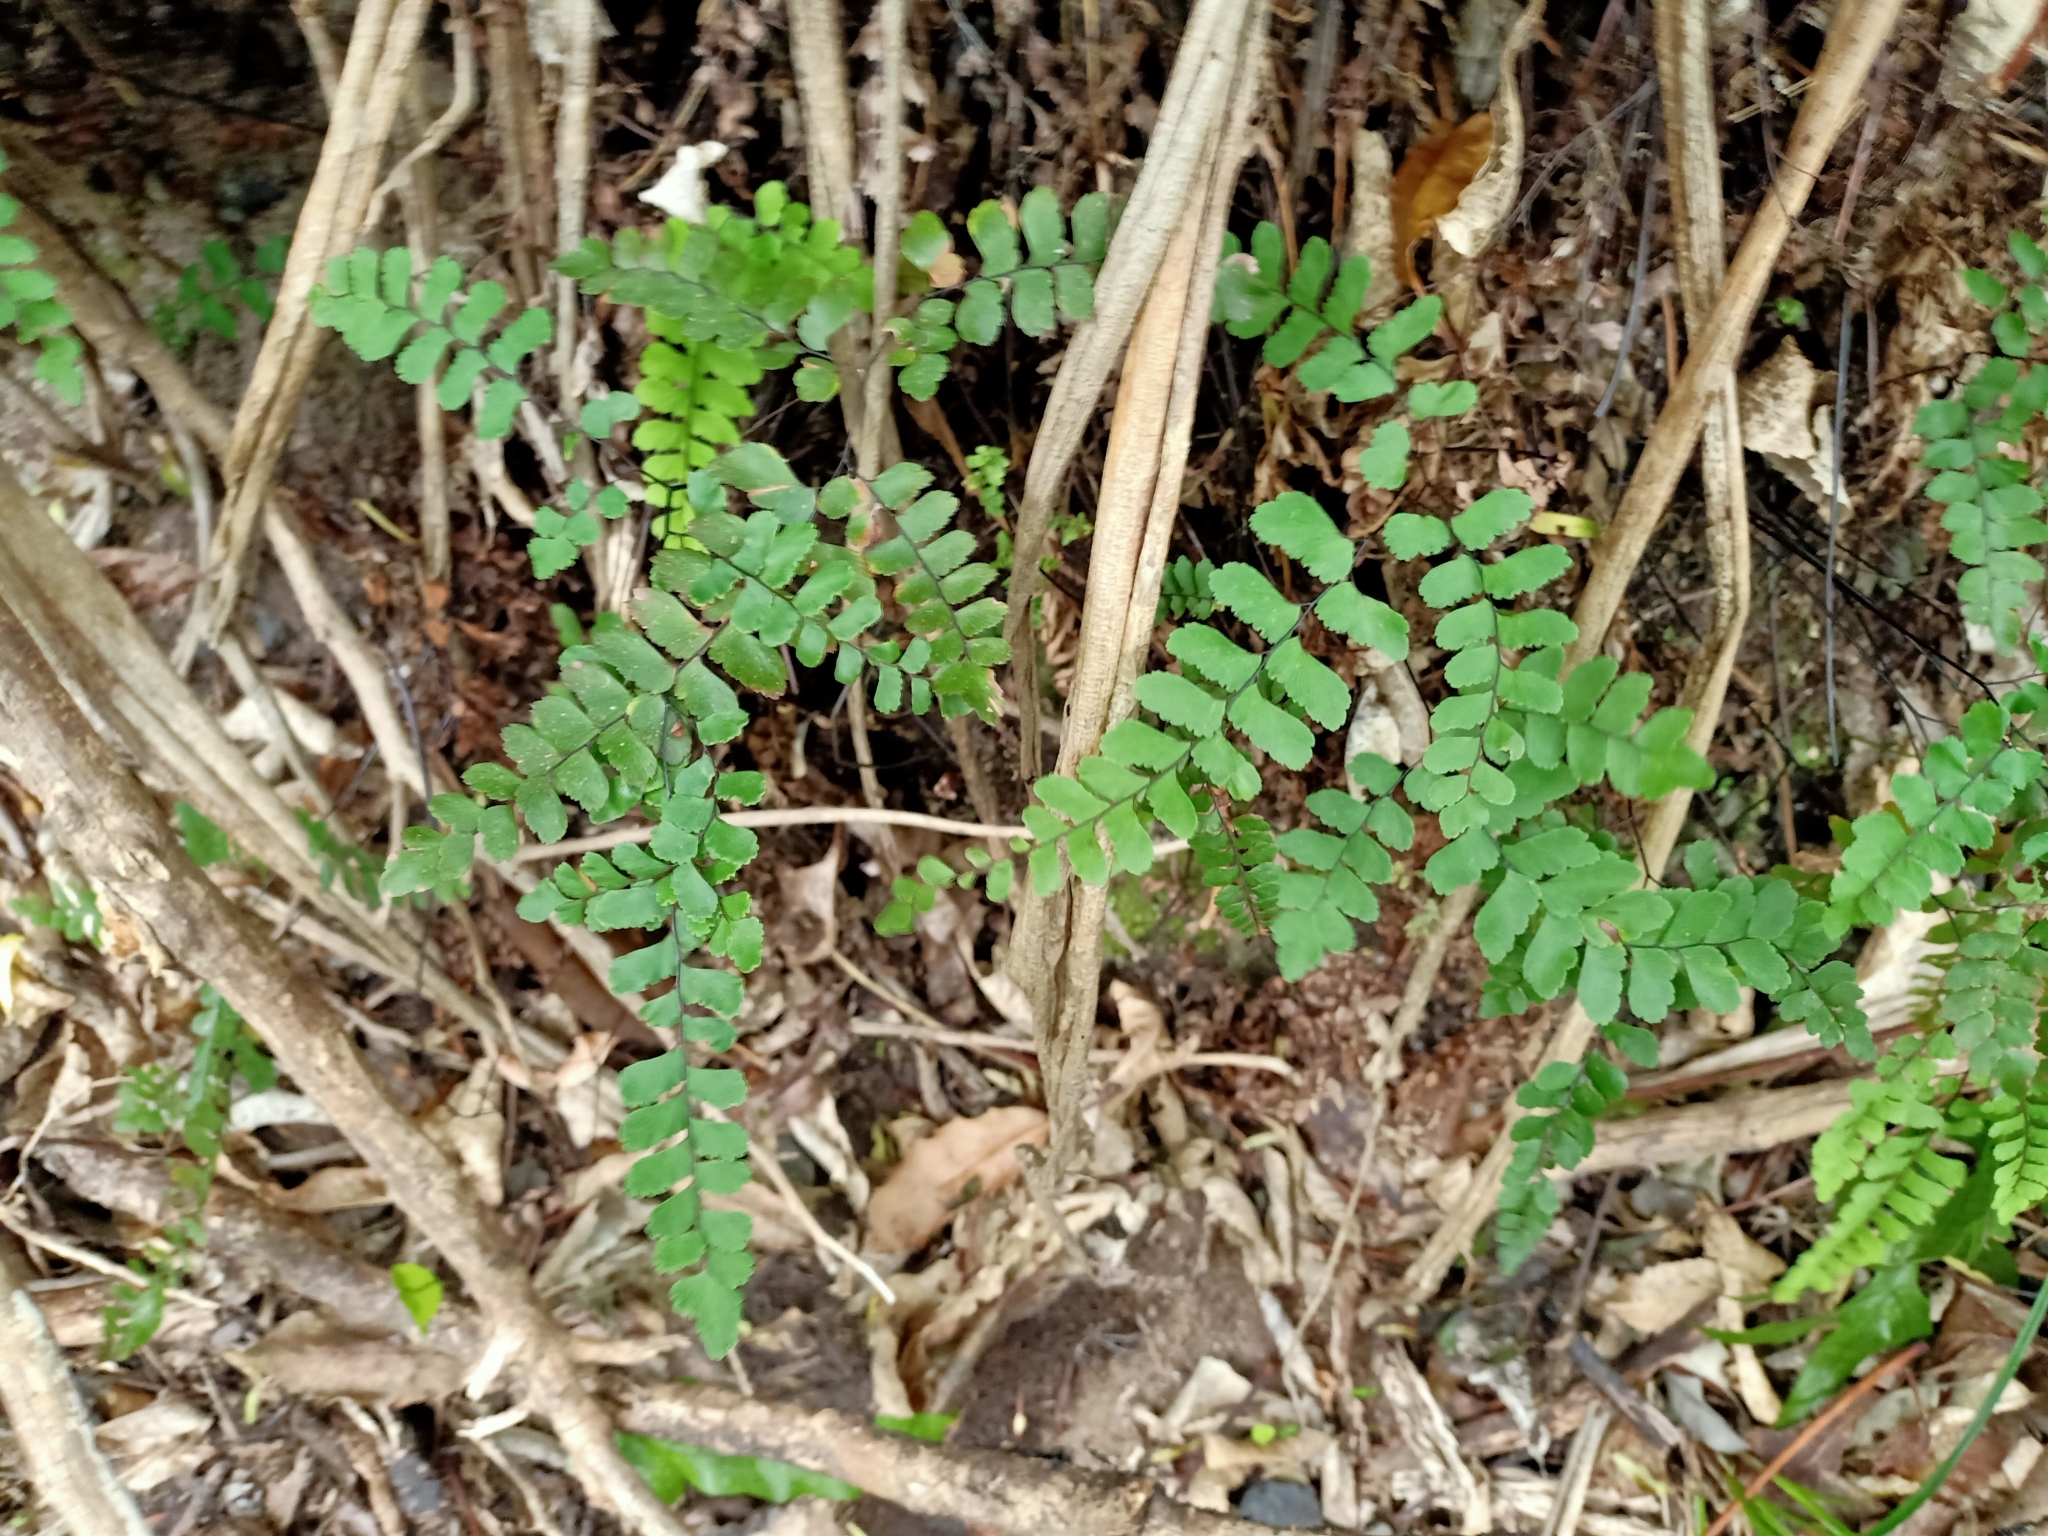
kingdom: Plantae
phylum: Tracheophyta
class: Polypodiopsida
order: Polypodiales
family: Pteridaceae
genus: Adiantum
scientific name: Adiantum cunninghamii
